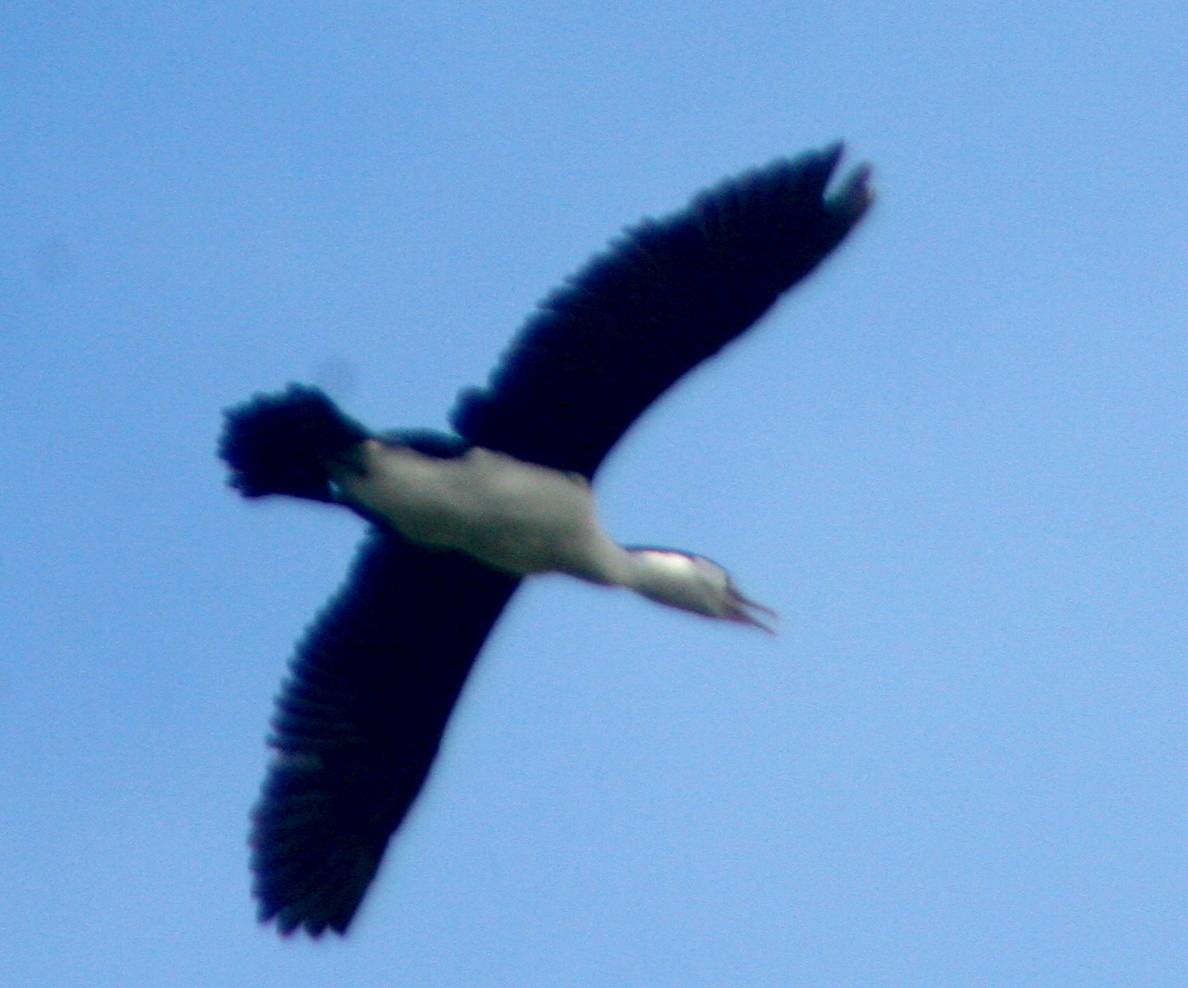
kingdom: Animalia
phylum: Chordata
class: Aves
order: Suliformes
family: Phalacrocoracidae
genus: Phalacrocorax
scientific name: Phalacrocorax varius
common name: Pied cormorant
